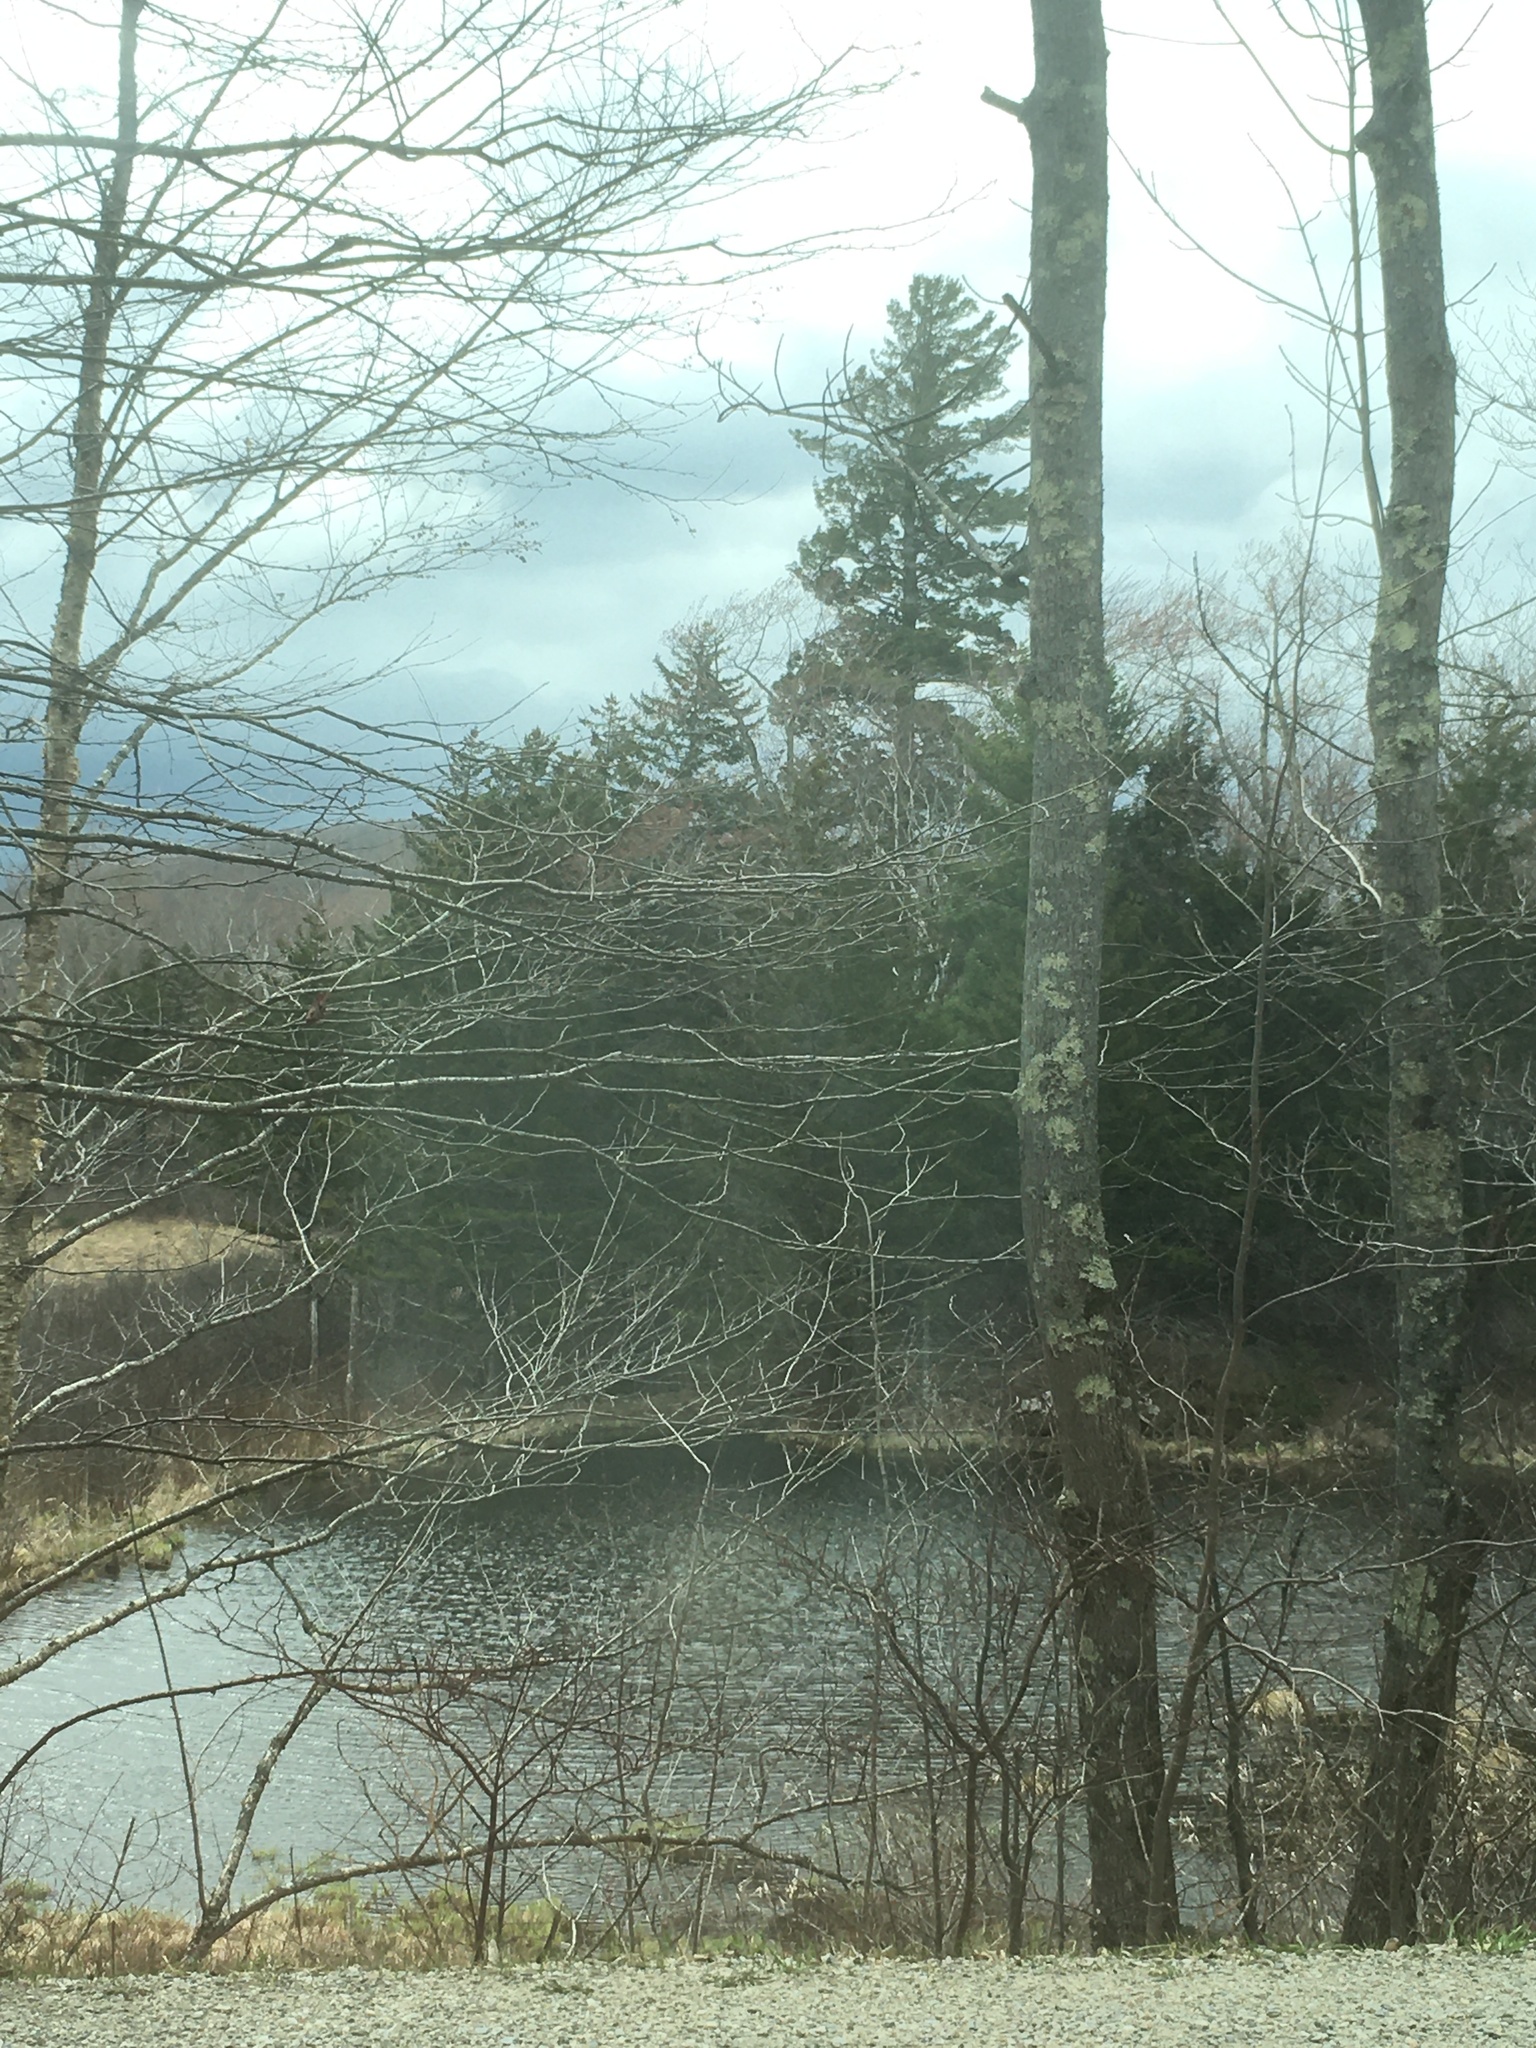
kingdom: Plantae
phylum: Tracheophyta
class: Pinopsida
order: Pinales
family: Pinaceae
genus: Pinus
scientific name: Pinus strobus
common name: Weymouth pine
